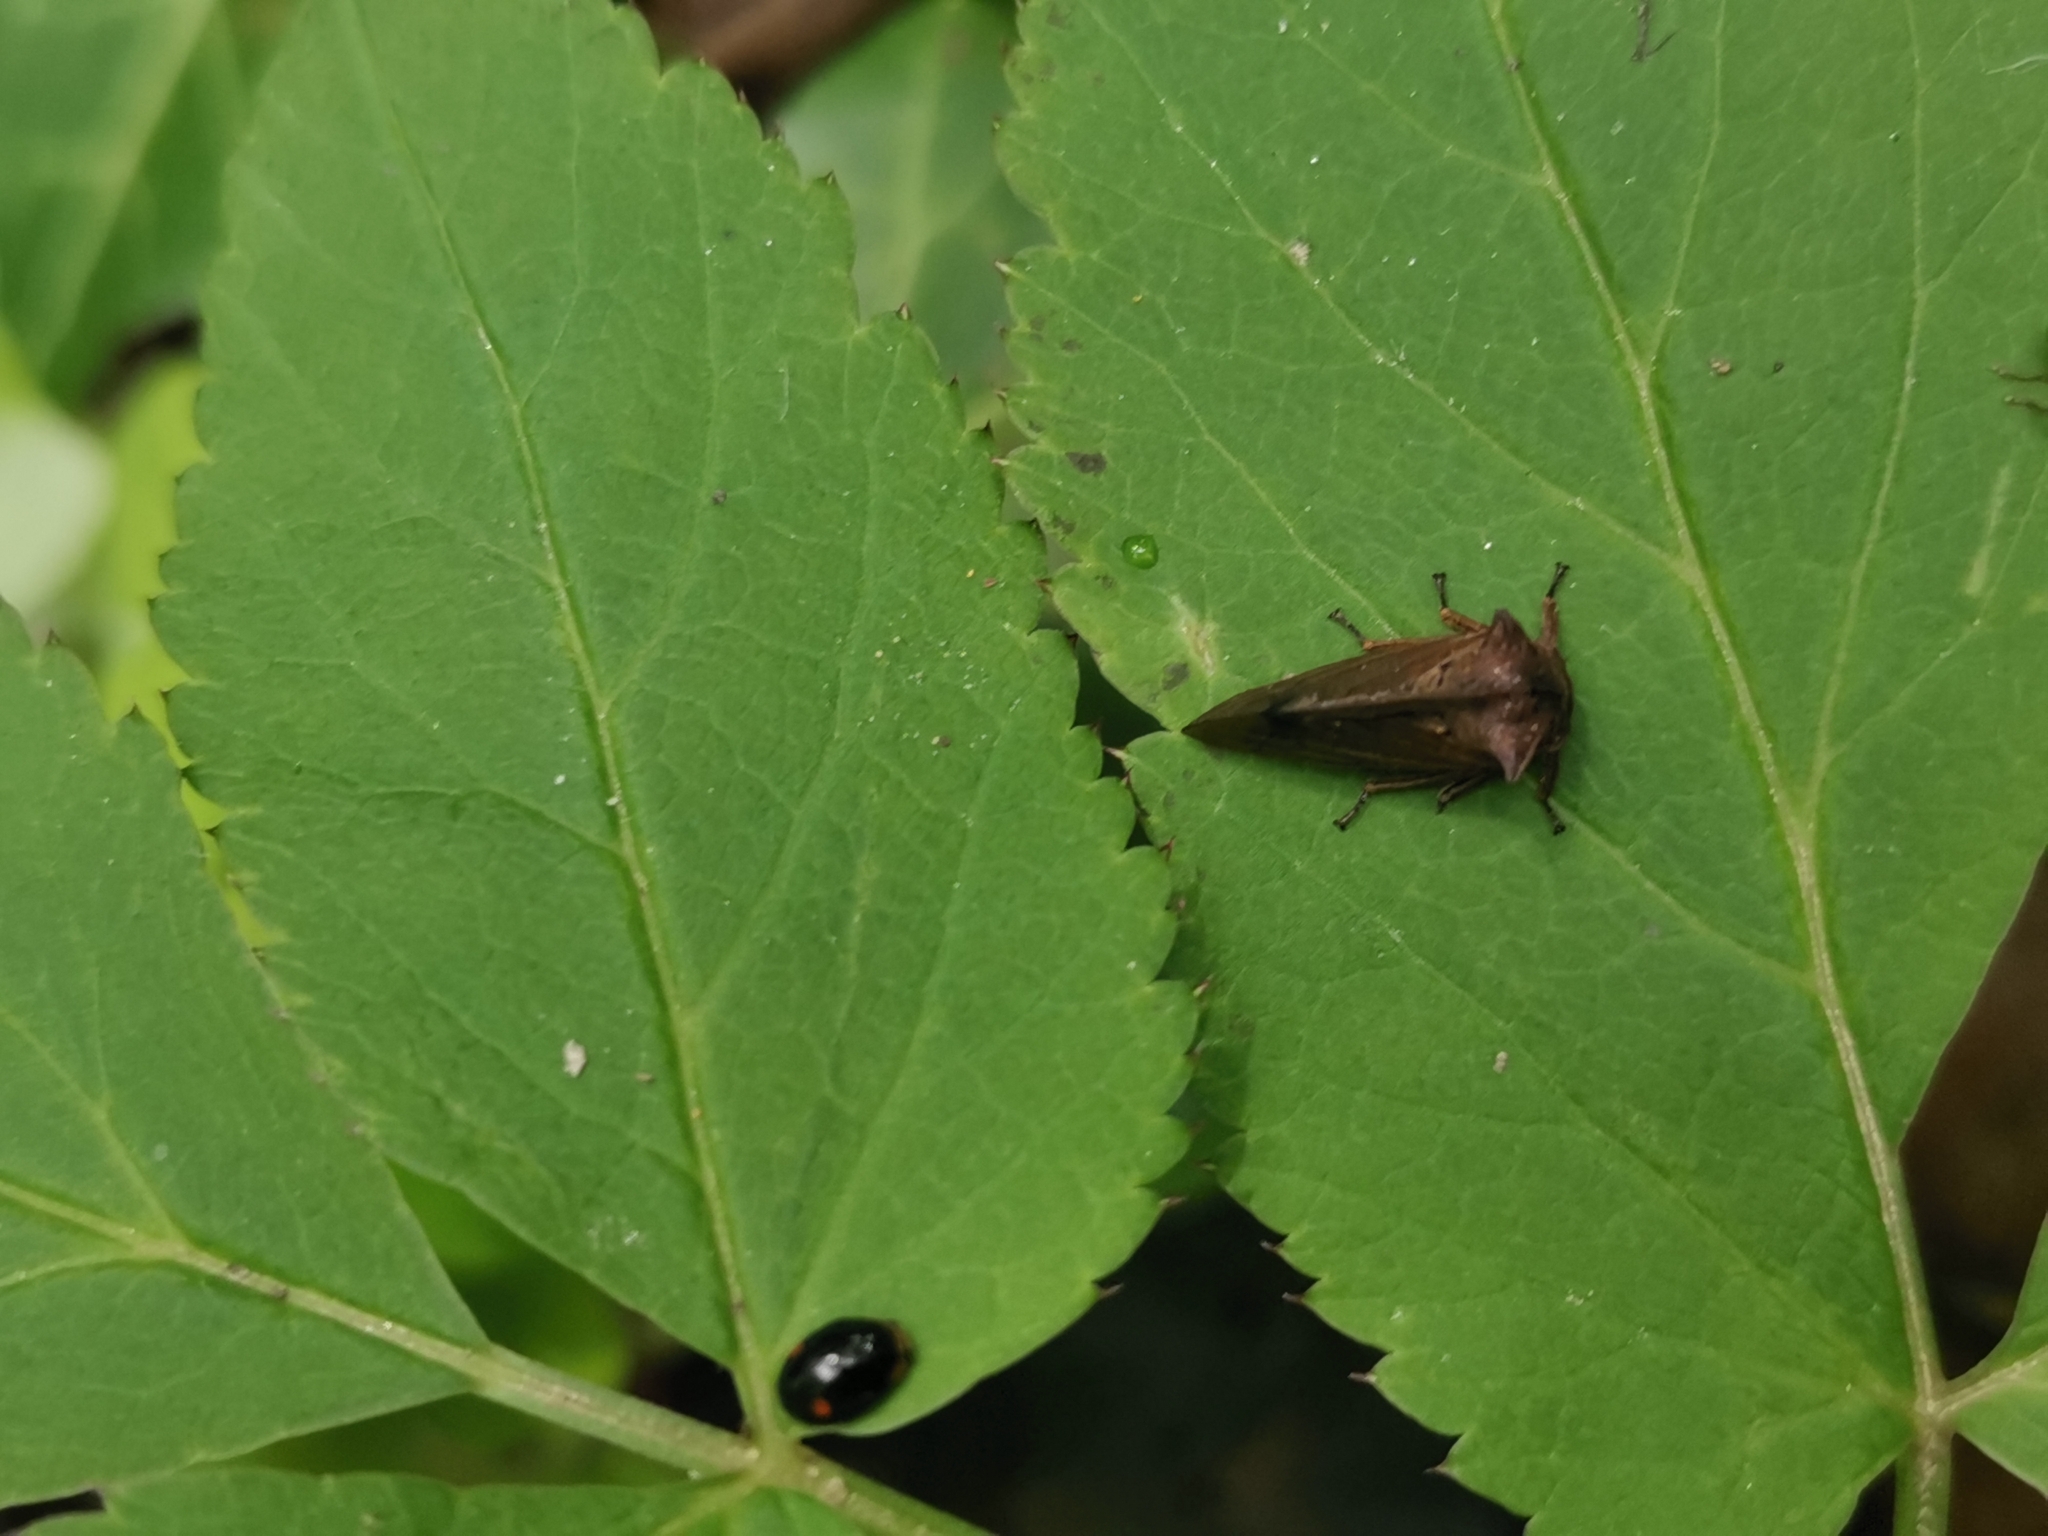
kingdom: Animalia
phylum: Arthropoda
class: Insecta
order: Hemiptera
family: Membracidae
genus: Centrotus
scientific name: Centrotus cornuta
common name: Treehopper
